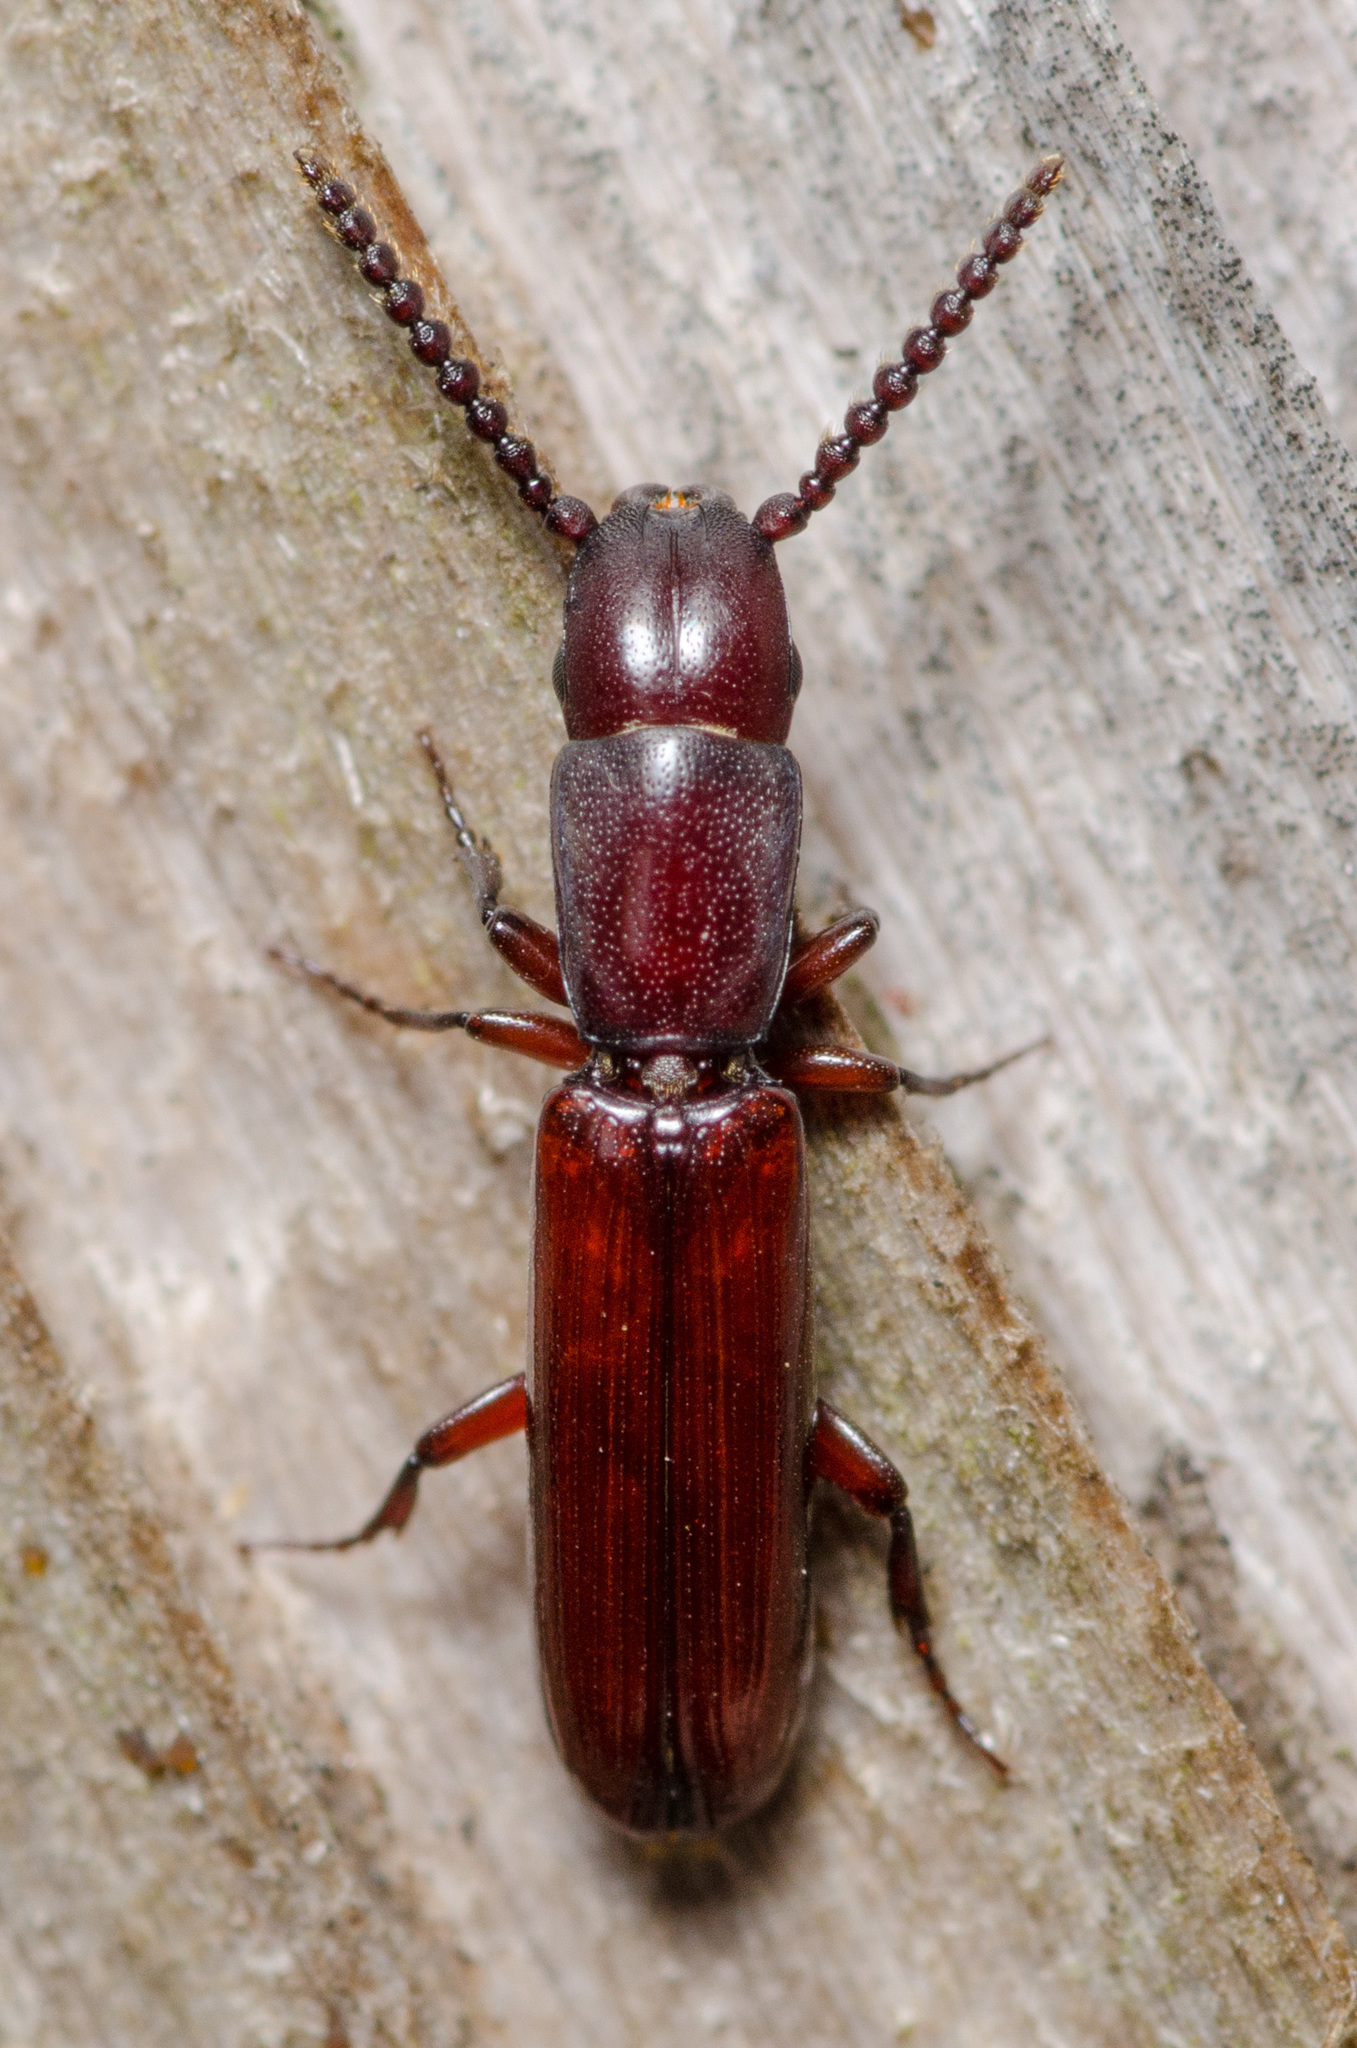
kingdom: Animalia
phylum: Arthropoda
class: Insecta
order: Coleoptera
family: Passandridae
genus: Taphroscelidia
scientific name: Taphroscelidia linearis
